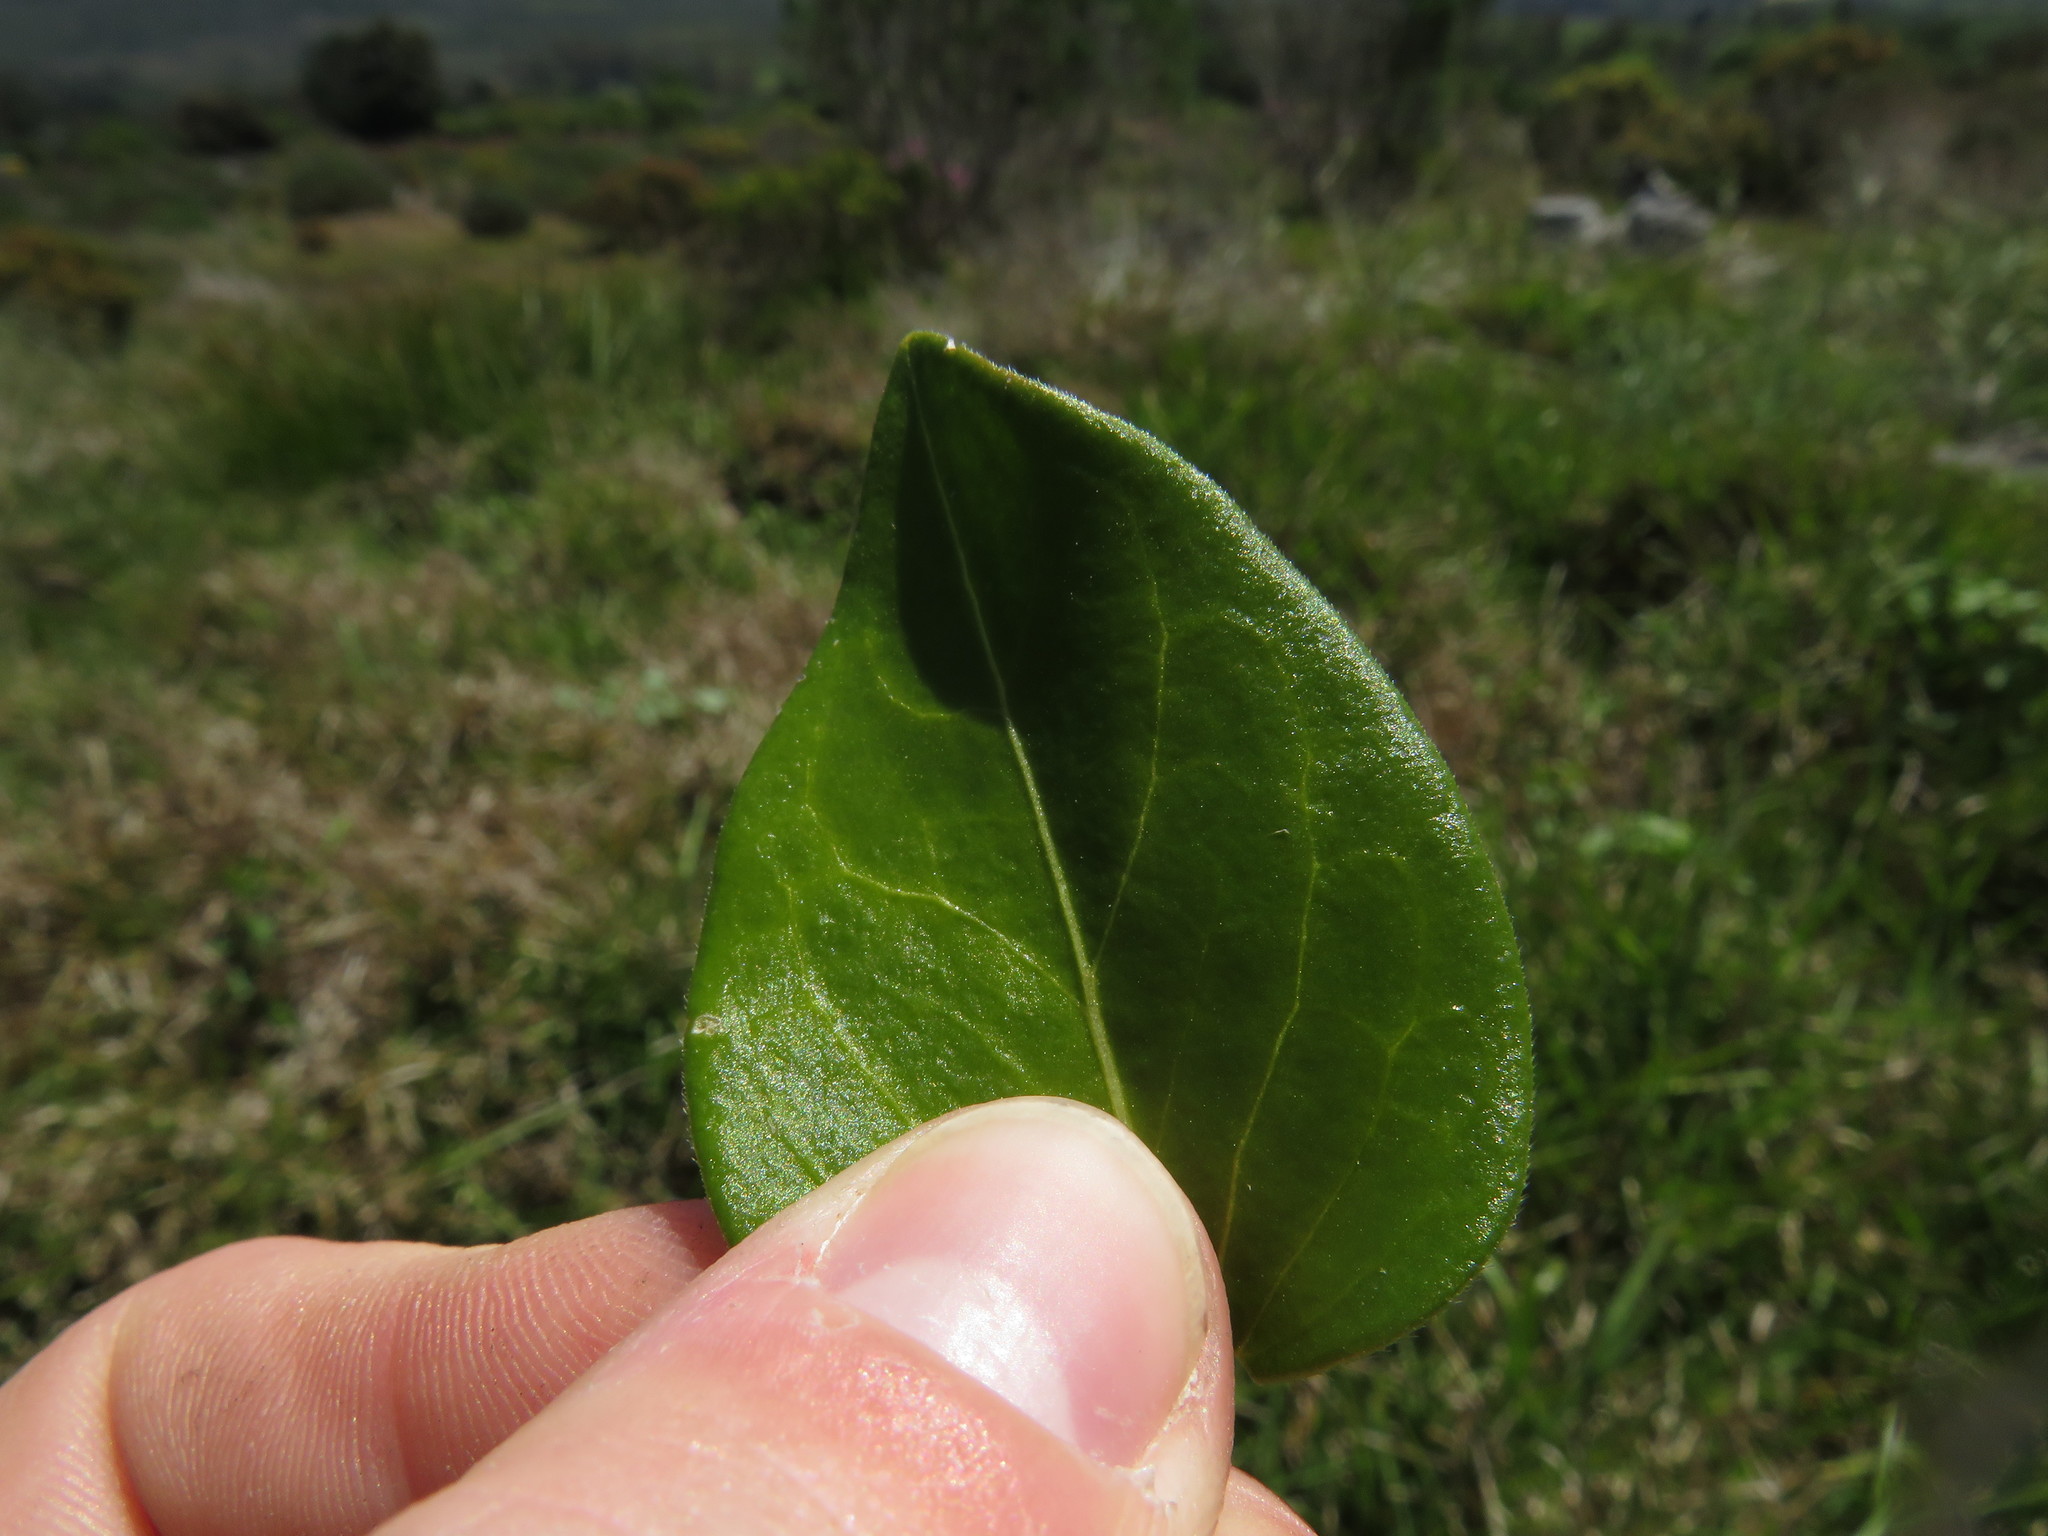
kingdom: Plantae
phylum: Tracheophyta
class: Magnoliopsida
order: Gentianales
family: Apocynaceae
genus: Vinca
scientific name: Vinca major
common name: Greater periwinkle
